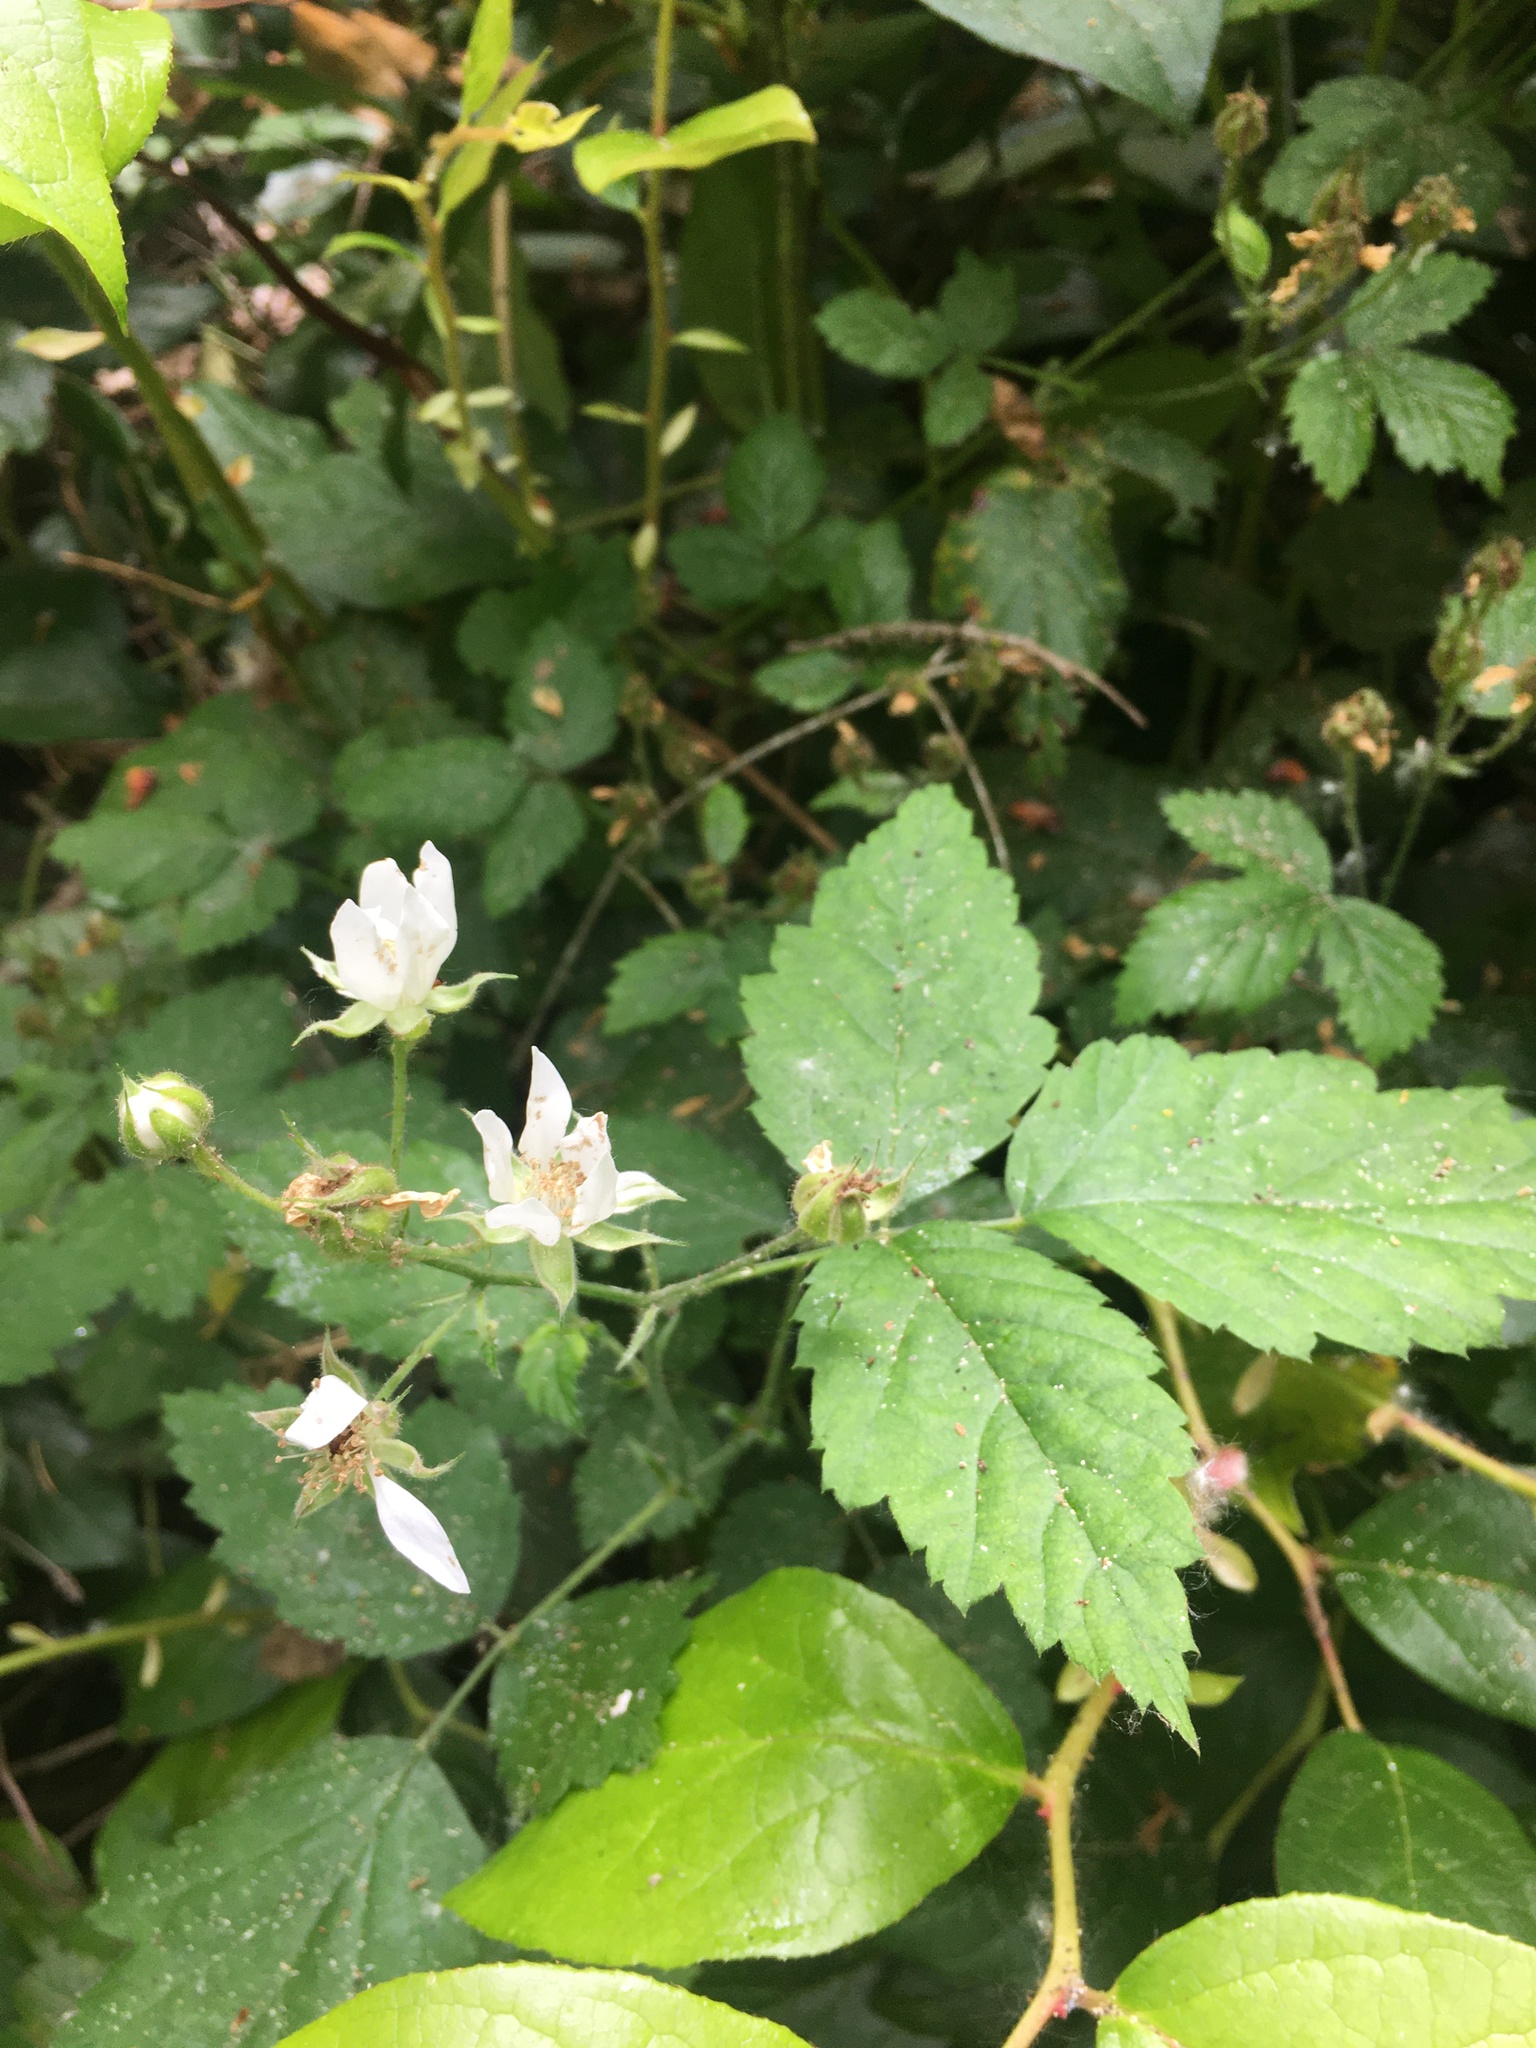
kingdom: Plantae
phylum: Tracheophyta
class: Magnoliopsida
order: Rosales
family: Rosaceae
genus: Rubus
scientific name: Rubus ursinus
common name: Pacific blackberry
